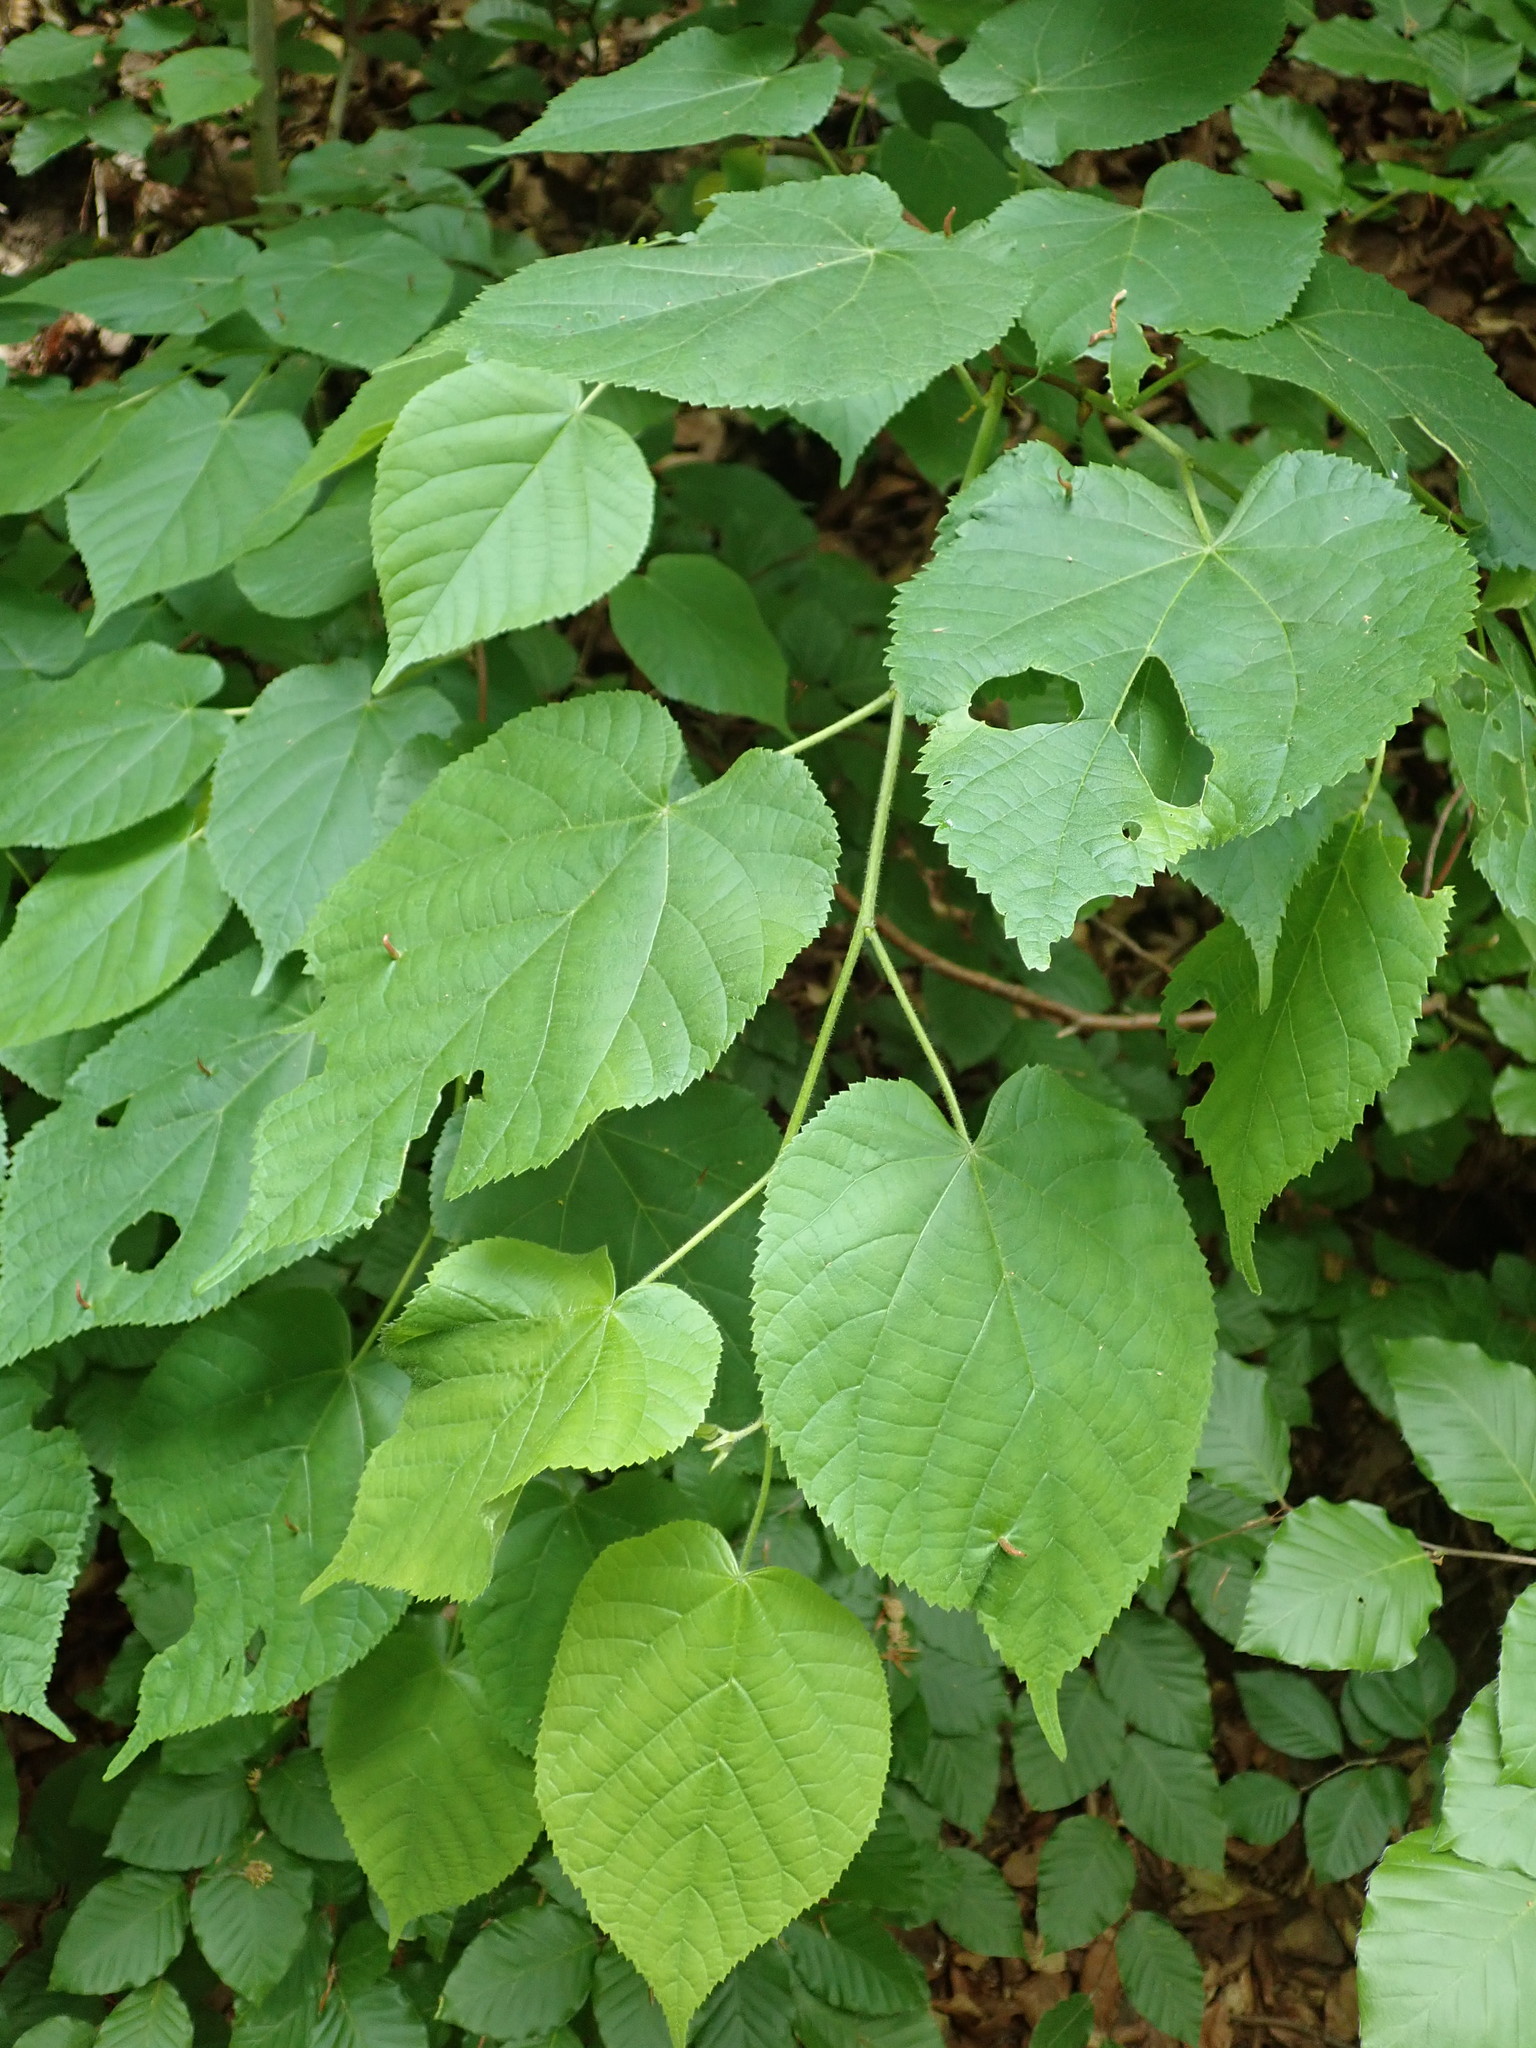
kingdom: Plantae
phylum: Tracheophyta
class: Magnoliopsida
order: Malvales
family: Malvaceae
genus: Tilia
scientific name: Tilia platyphyllos
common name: Large-leaved lime
